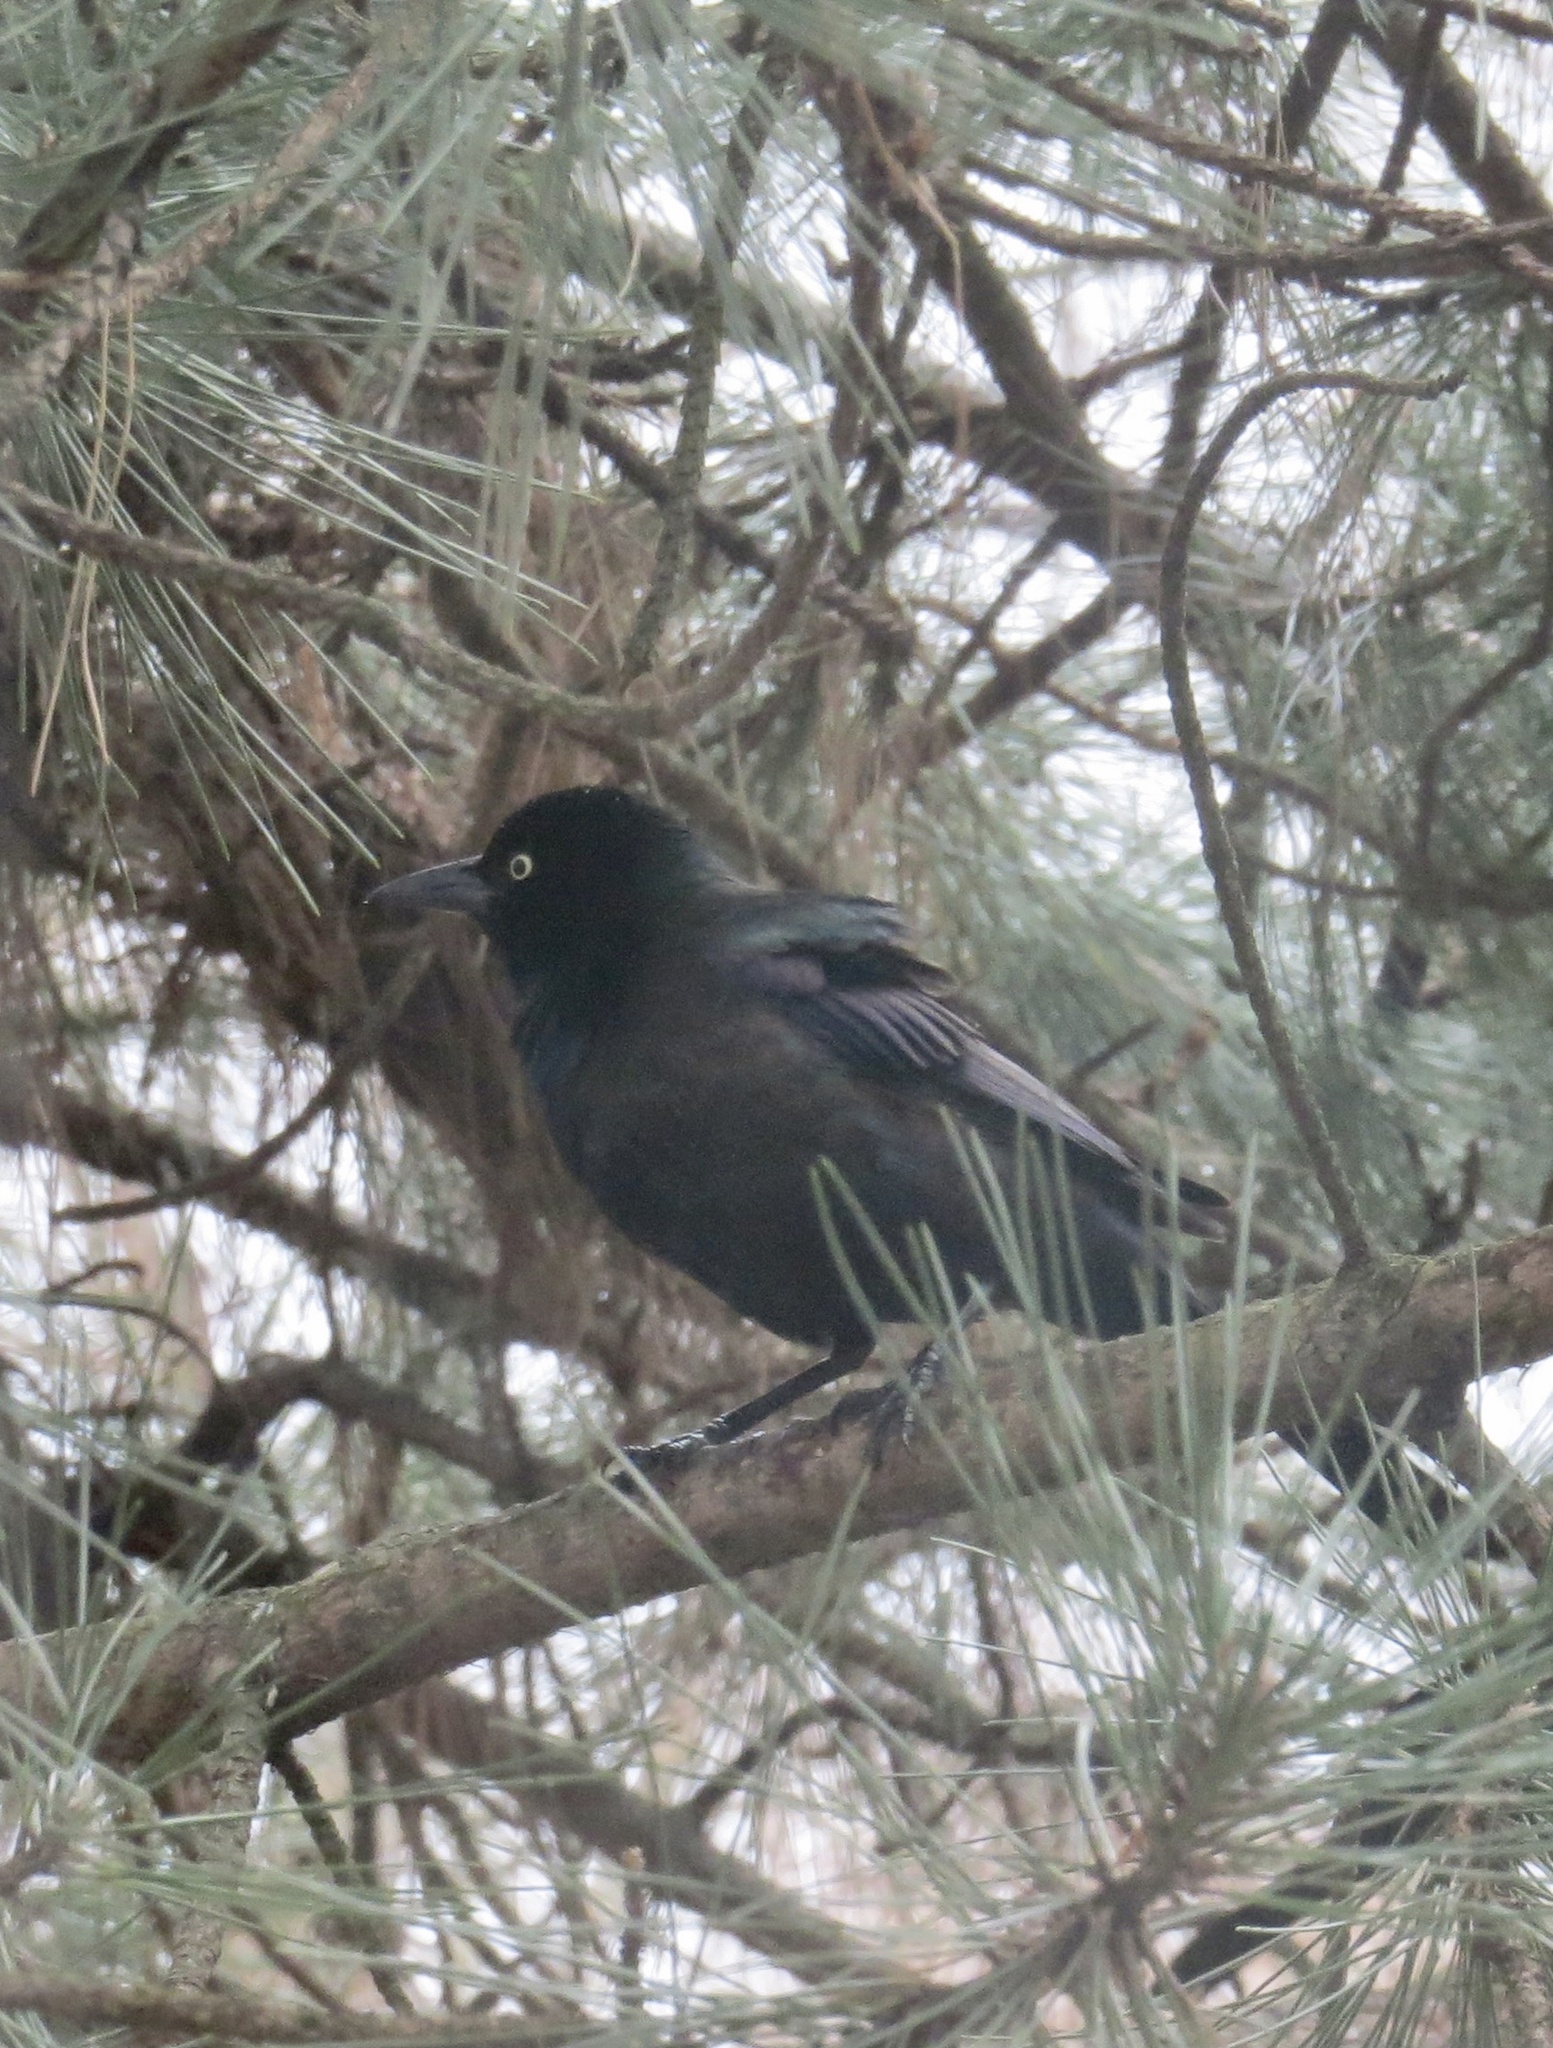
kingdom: Animalia
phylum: Chordata
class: Aves
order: Passeriformes
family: Icteridae
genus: Quiscalus
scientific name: Quiscalus quiscula
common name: Common grackle
